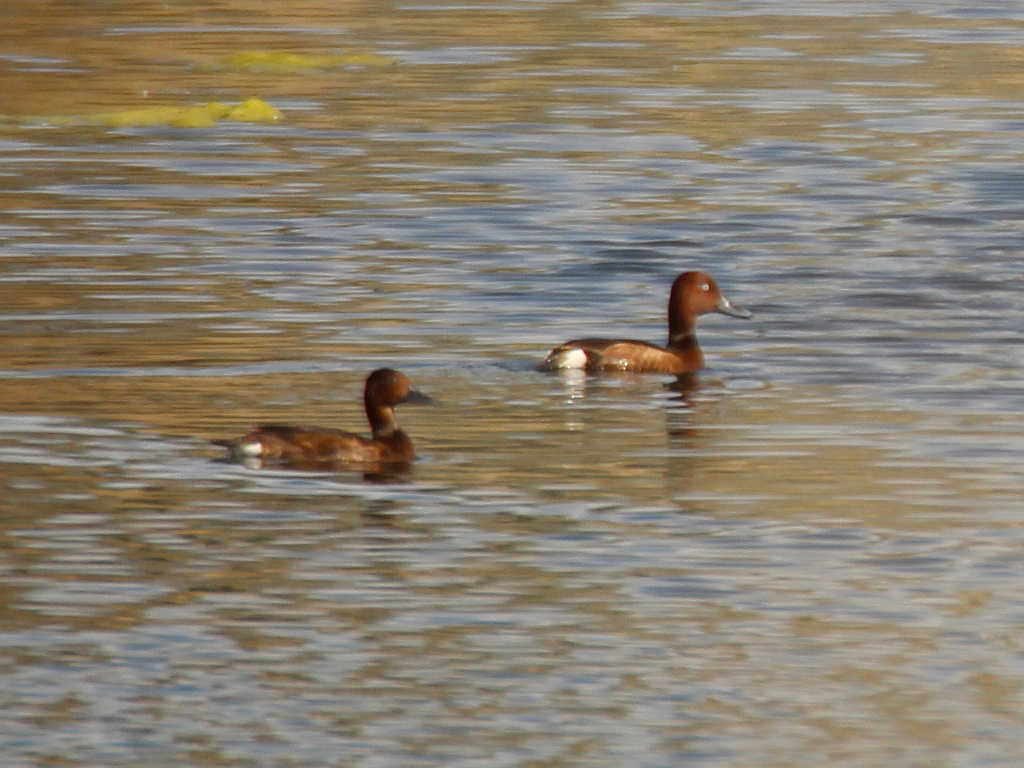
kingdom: Animalia
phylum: Chordata
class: Aves
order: Anseriformes
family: Anatidae
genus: Aythya
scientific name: Aythya nyroca
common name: Ferruginous duck
